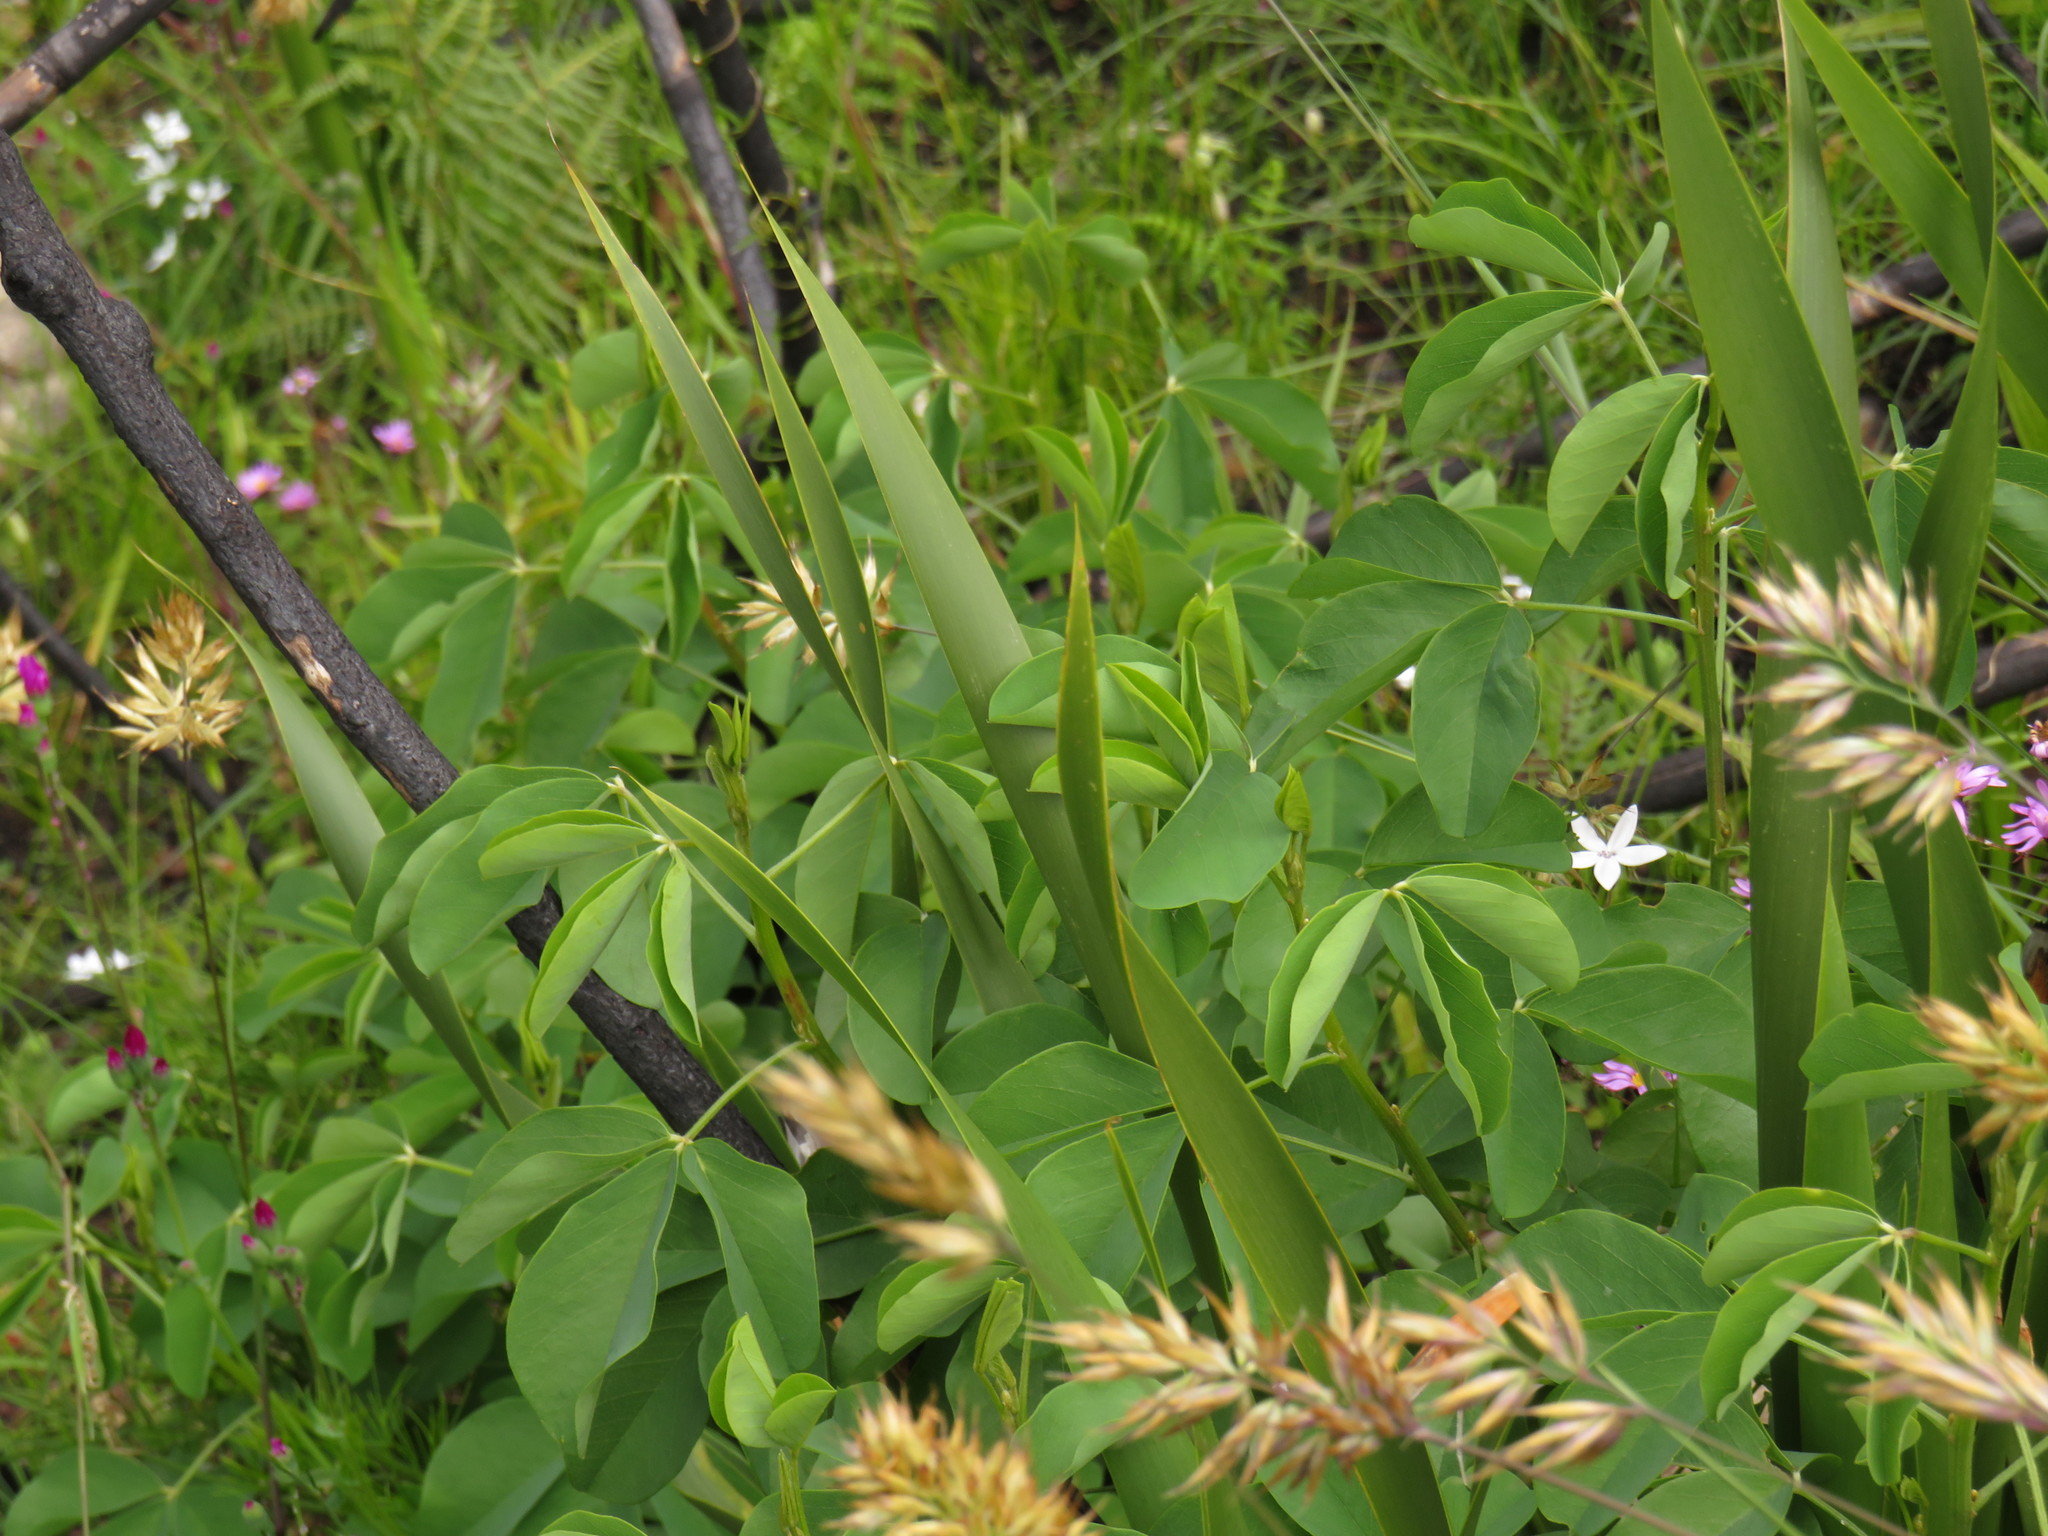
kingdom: Plantae
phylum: Tracheophyta
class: Magnoliopsida
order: Fabales
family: Fabaceae
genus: Hypocalyptus
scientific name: Hypocalyptus sophoroides
